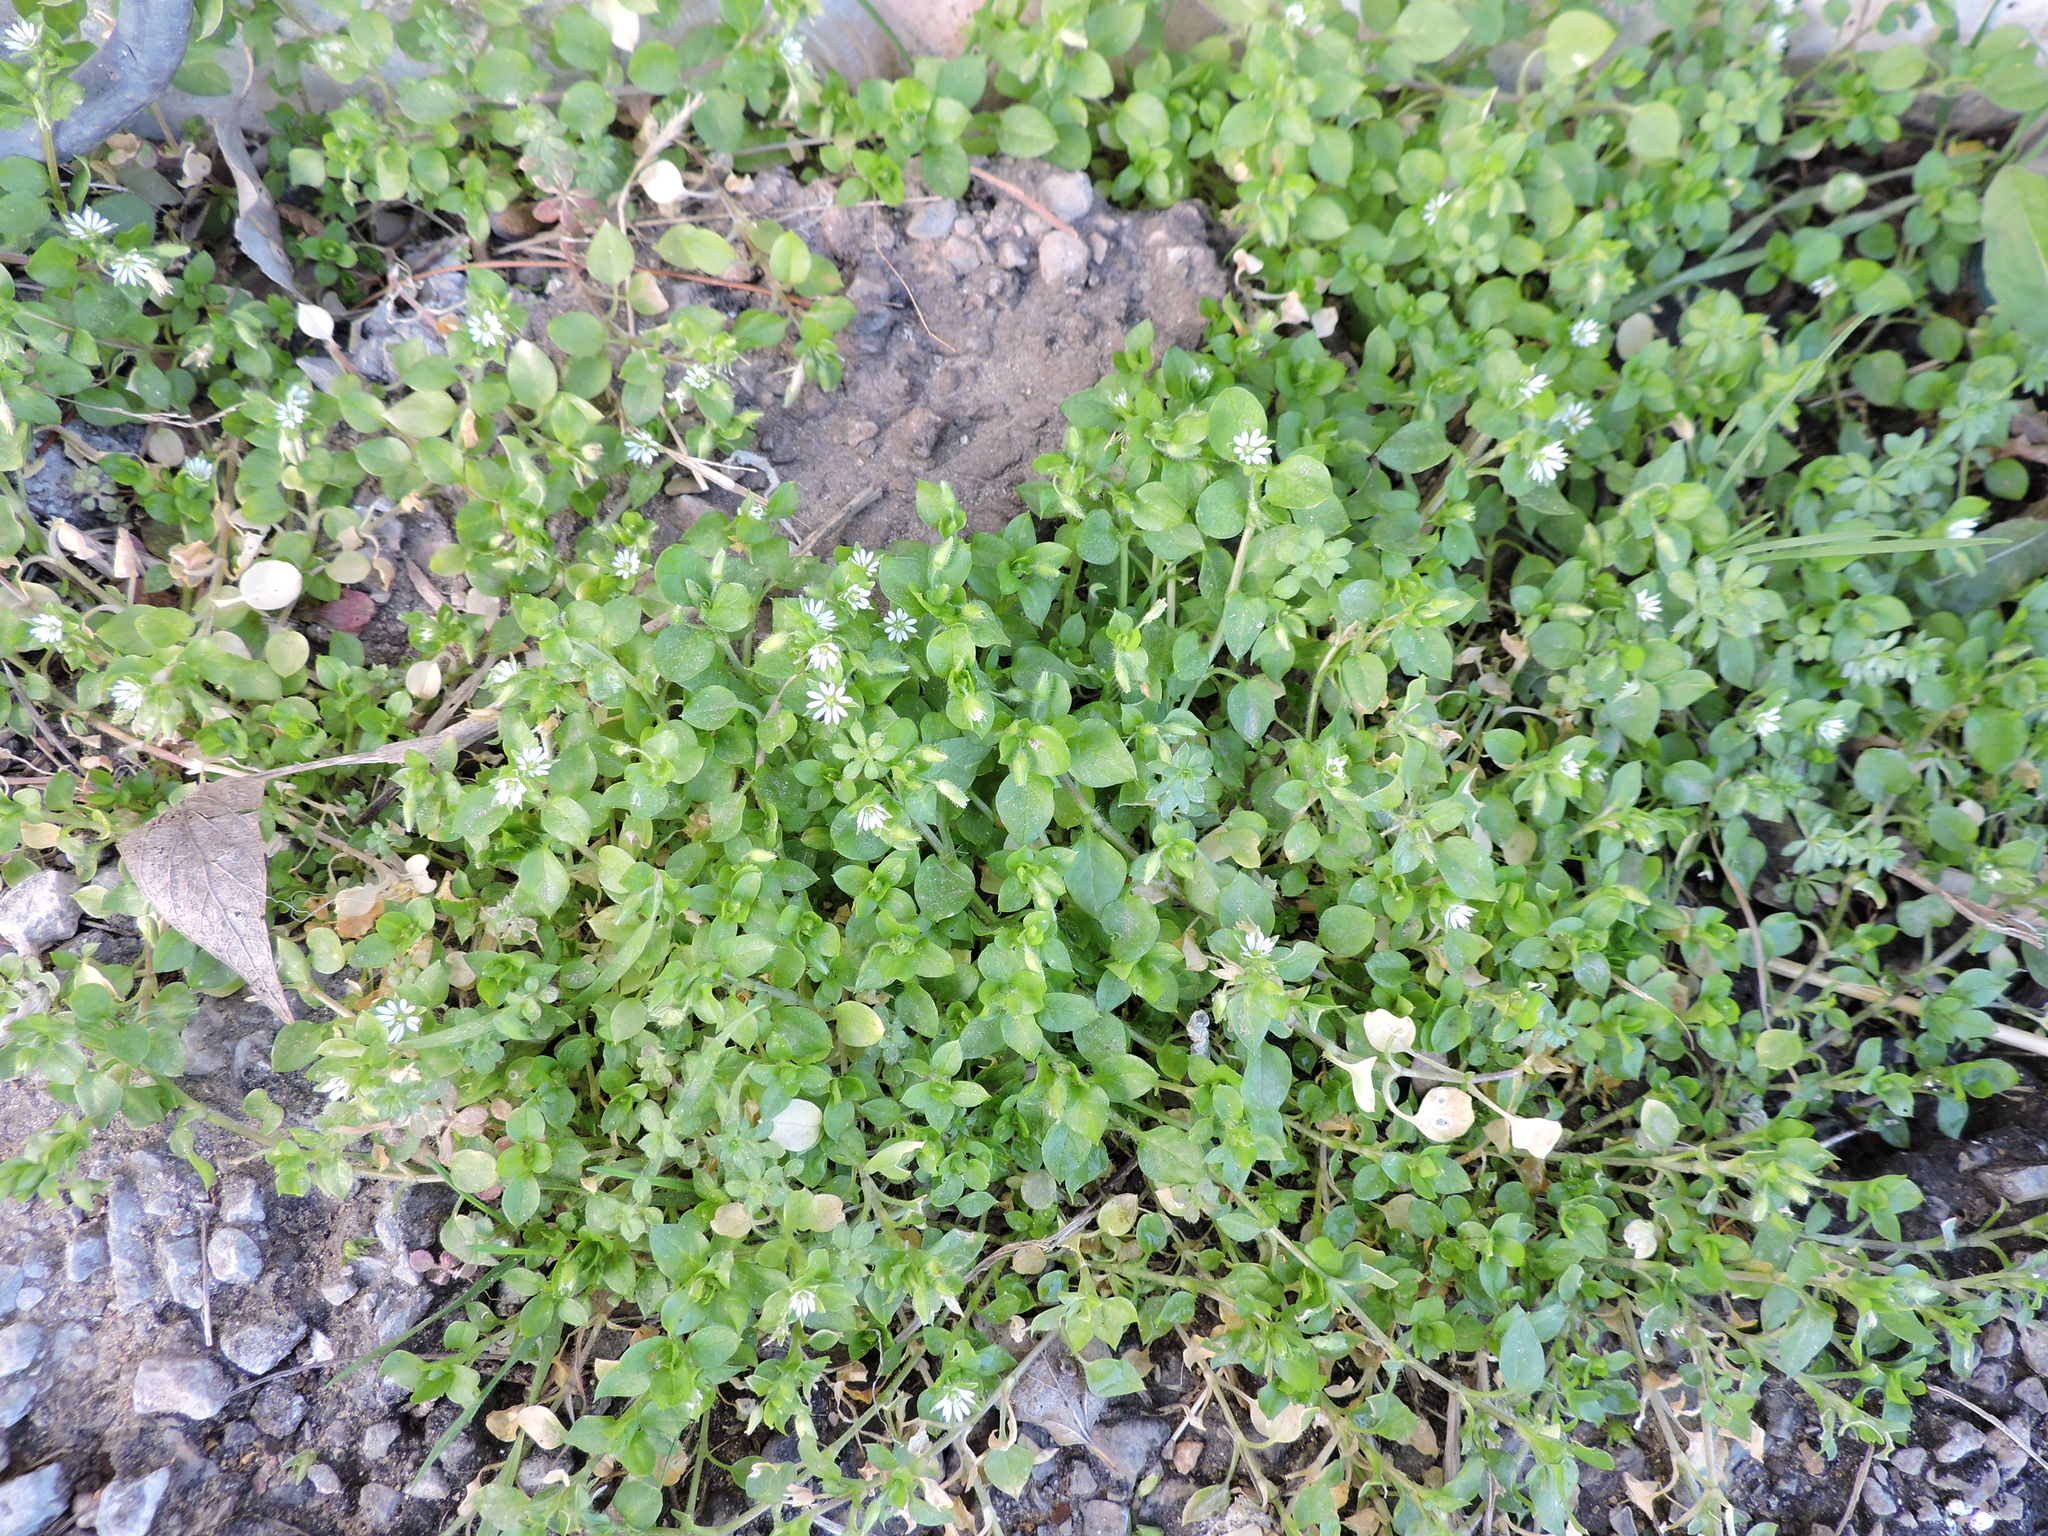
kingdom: Plantae
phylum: Tracheophyta
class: Magnoliopsida
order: Caryophyllales
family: Caryophyllaceae
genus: Stellaria
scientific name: Stellaria media
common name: Common chickweed
